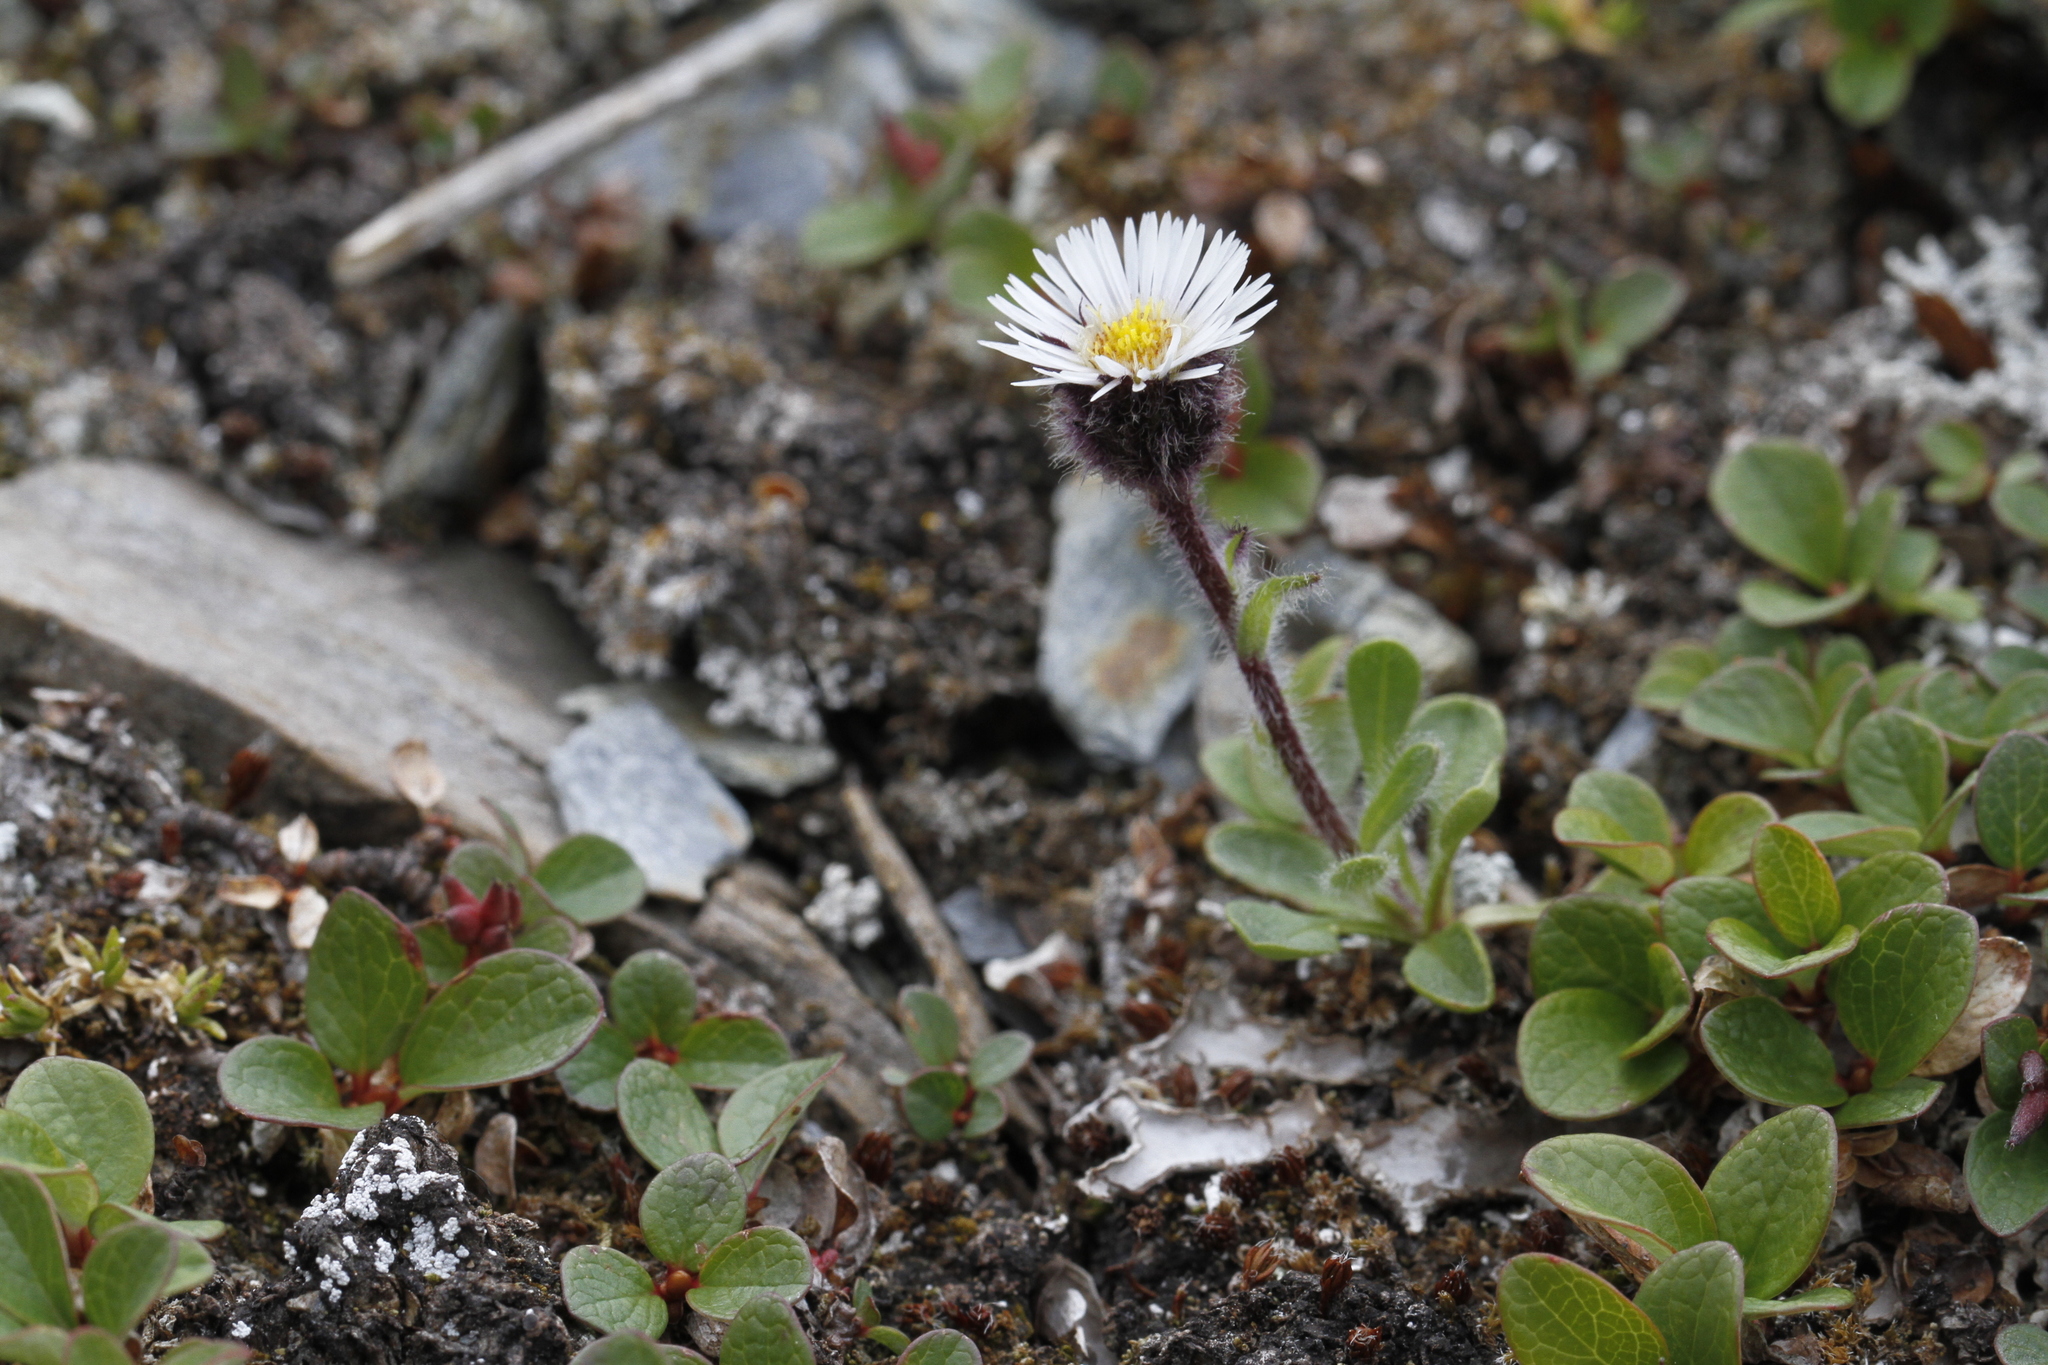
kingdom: Plantae
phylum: Tracheophyta
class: Magnoliopsida
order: Asterales
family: Asteraceae
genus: Erigeron
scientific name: Erigeron humilis
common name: Arctic-alpine fleabane
